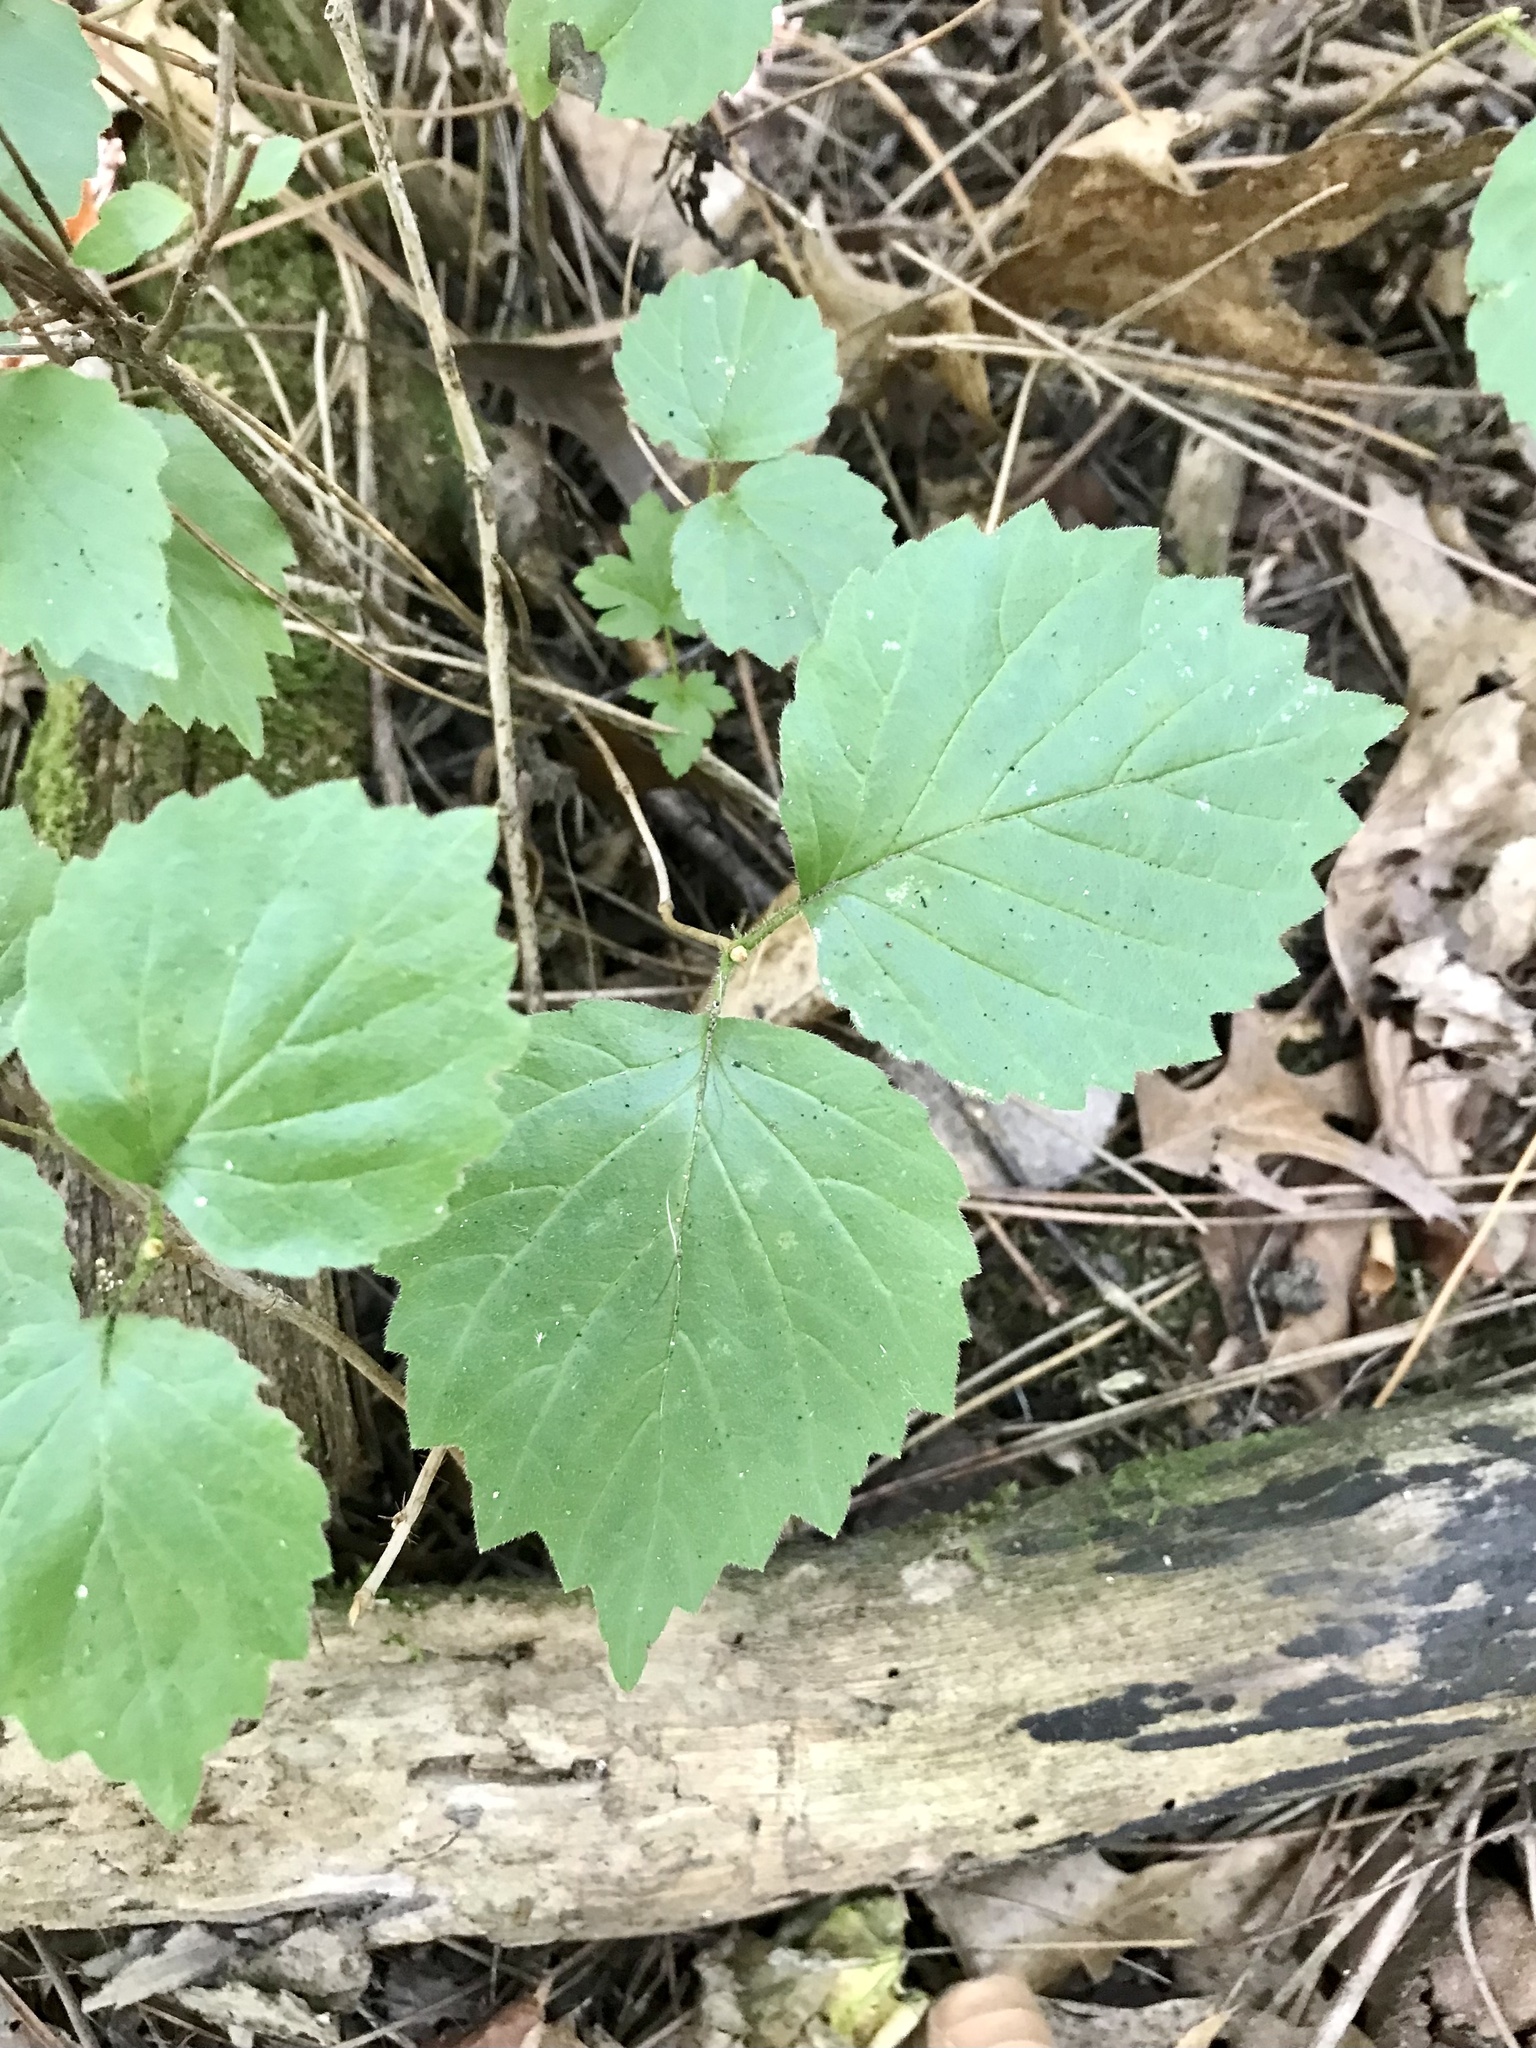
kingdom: Plantae
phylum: Tracheophyta
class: Magnoliopsida
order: Dipsacales
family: Viburnaceae
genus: Viburnum
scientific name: Viburnum rafinesqueanum
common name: Downy arrow-wood
